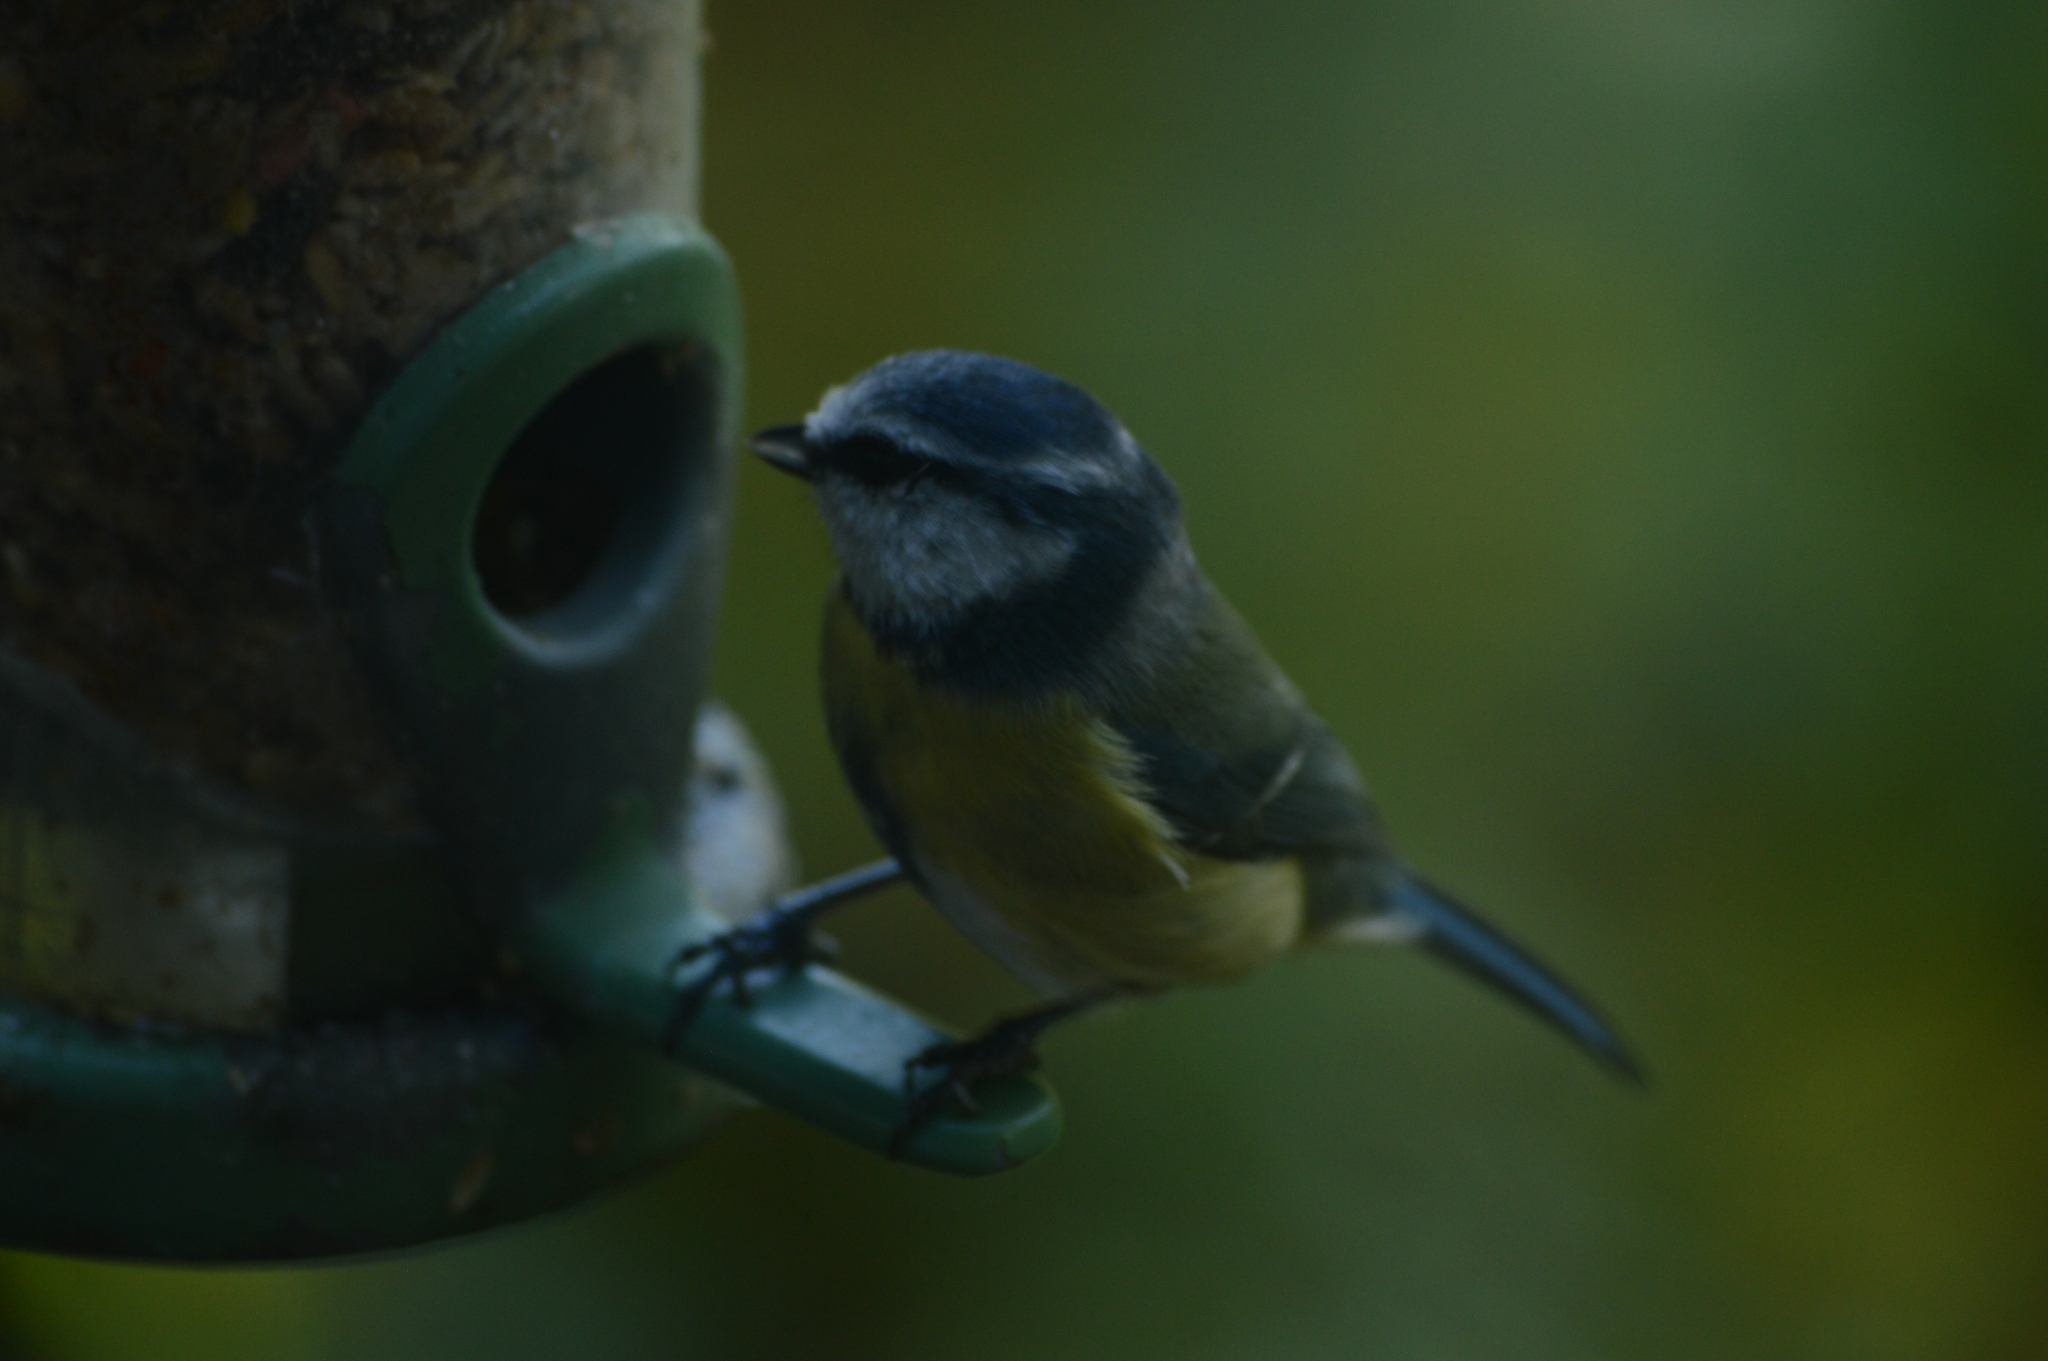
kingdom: Animalia
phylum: Chordata
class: Aves
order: Passeriformes
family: Paridae
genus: Cyanistes
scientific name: Cyanistes caeruleus
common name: Eurasian blue tit
